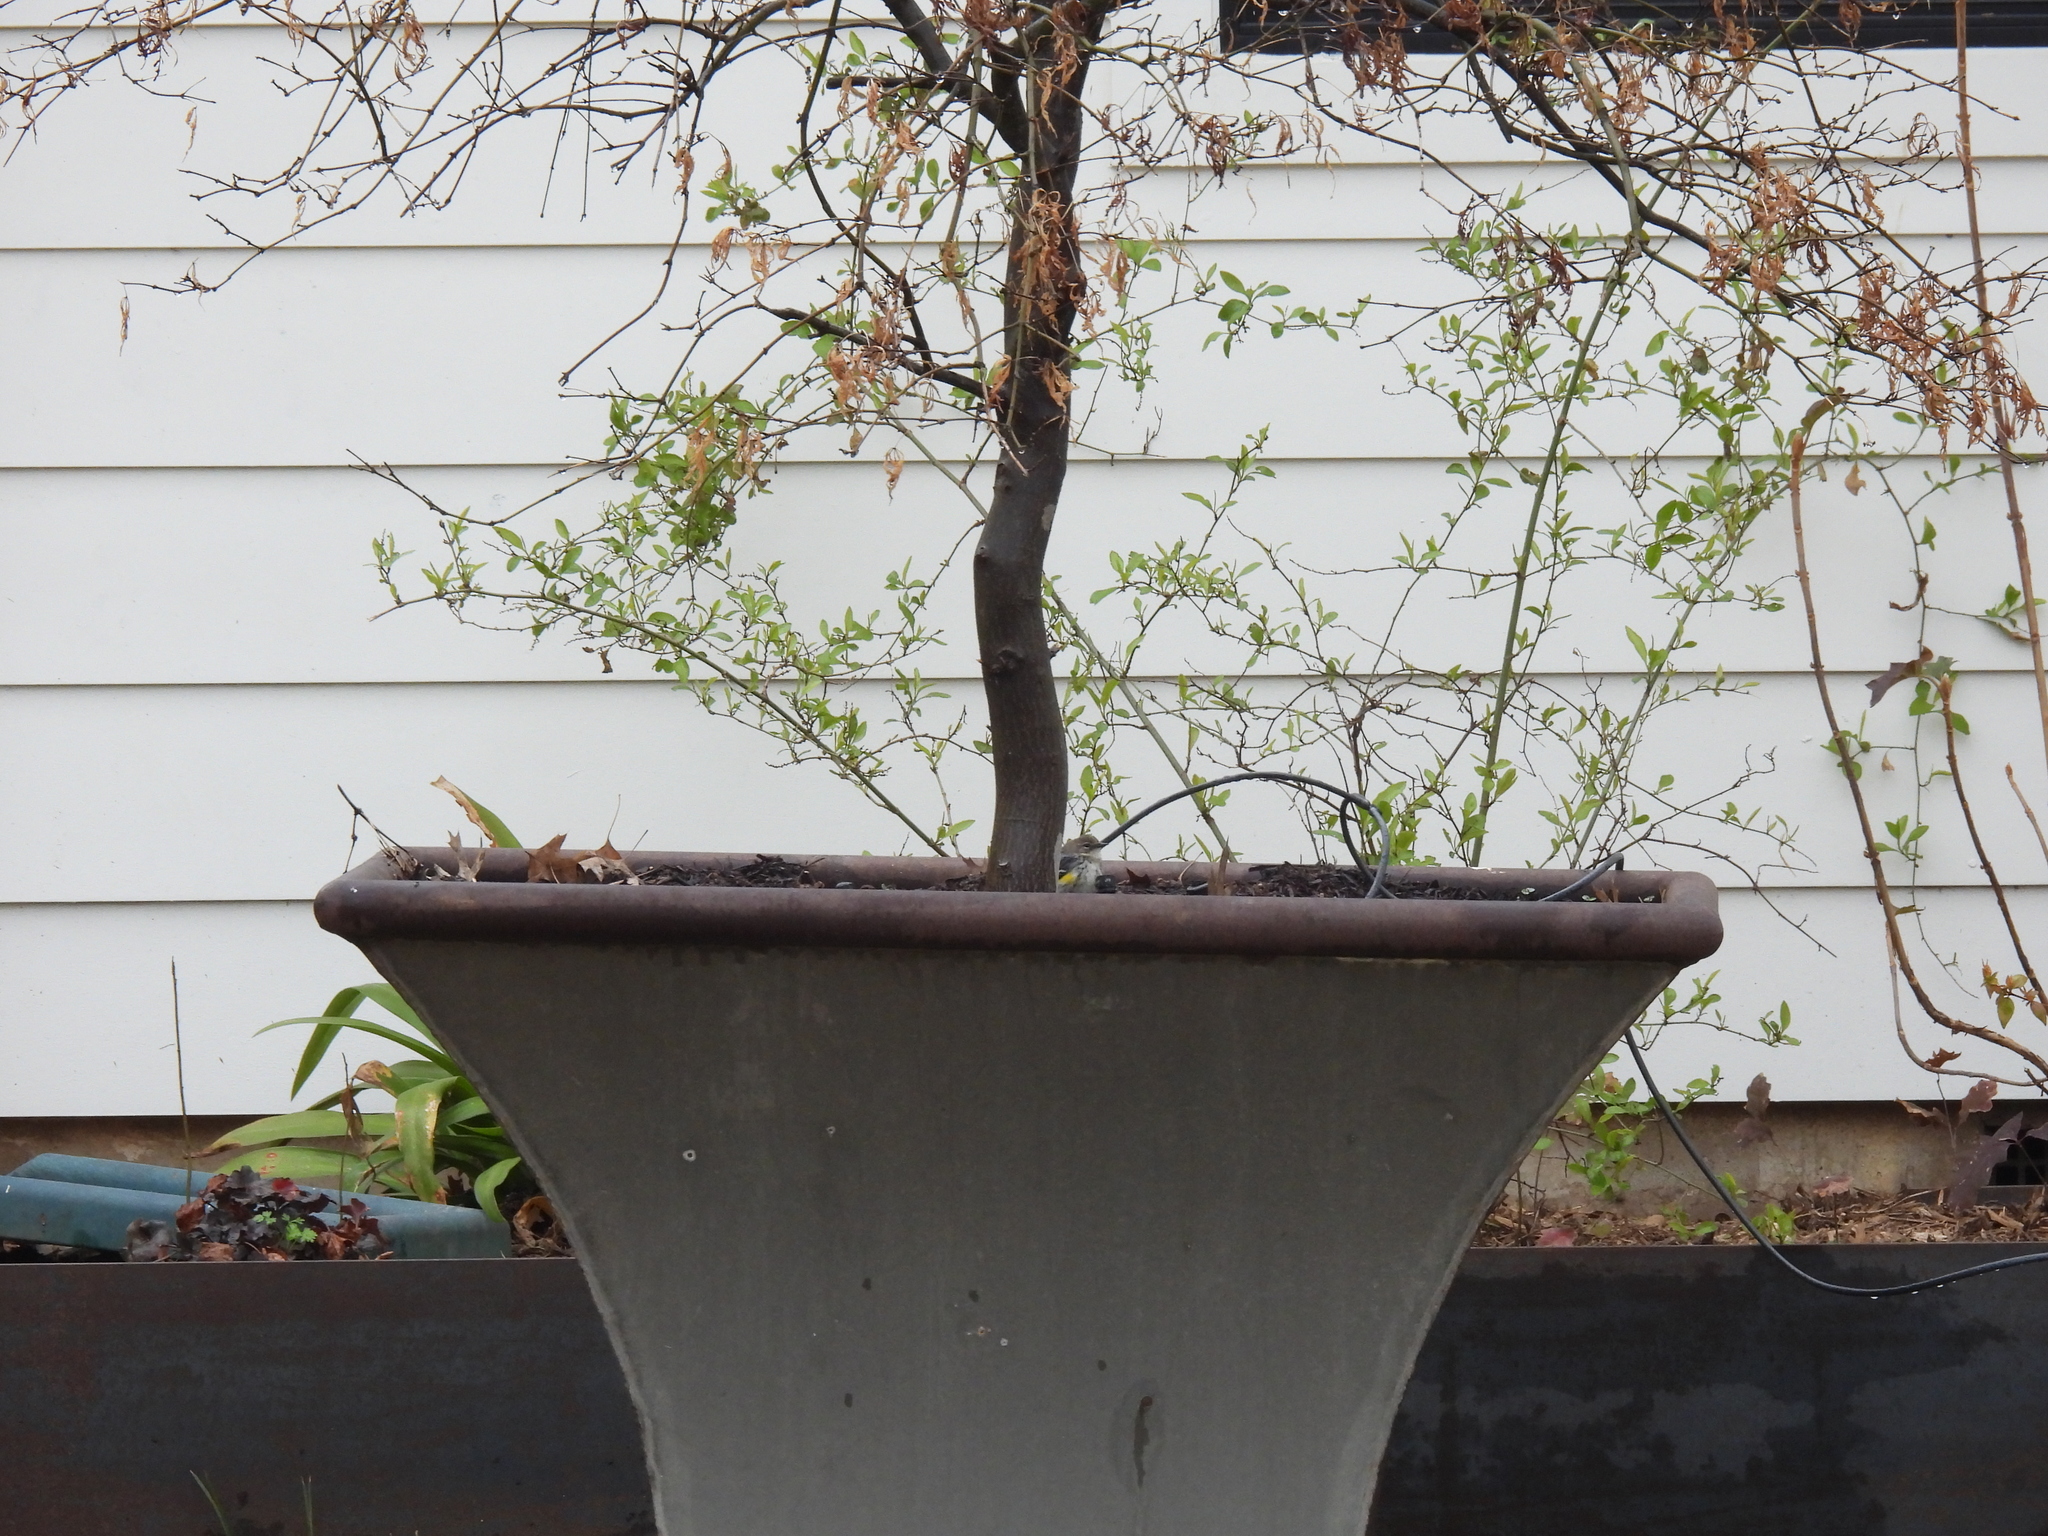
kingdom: Animalia
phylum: Chordata
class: Aves
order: Passeriformes
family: Parulidae
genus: Setophaga
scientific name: Setophaga coronata
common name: Myrtle warbler
